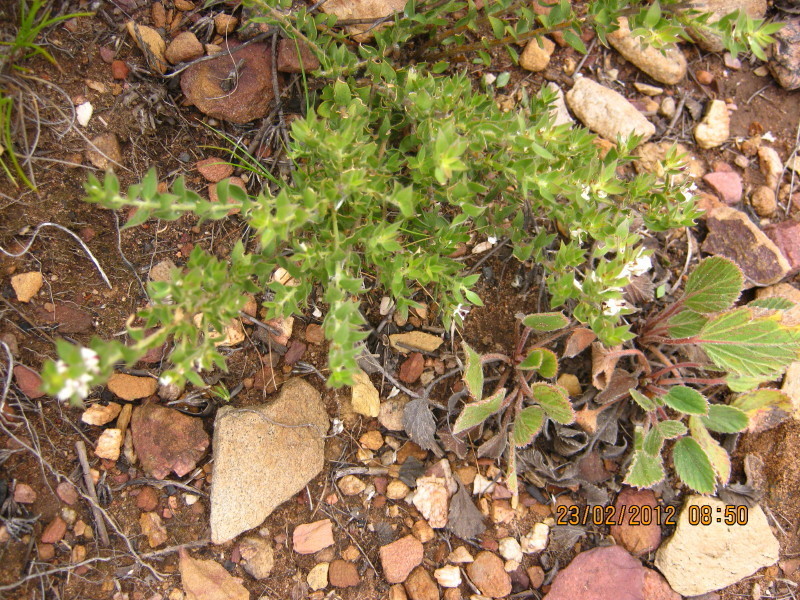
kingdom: Plantae
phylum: Tracheophyta
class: Magnoliopsida
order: Fabales
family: Fabaceae
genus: Amphithalea
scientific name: Amphithalea micrantha
